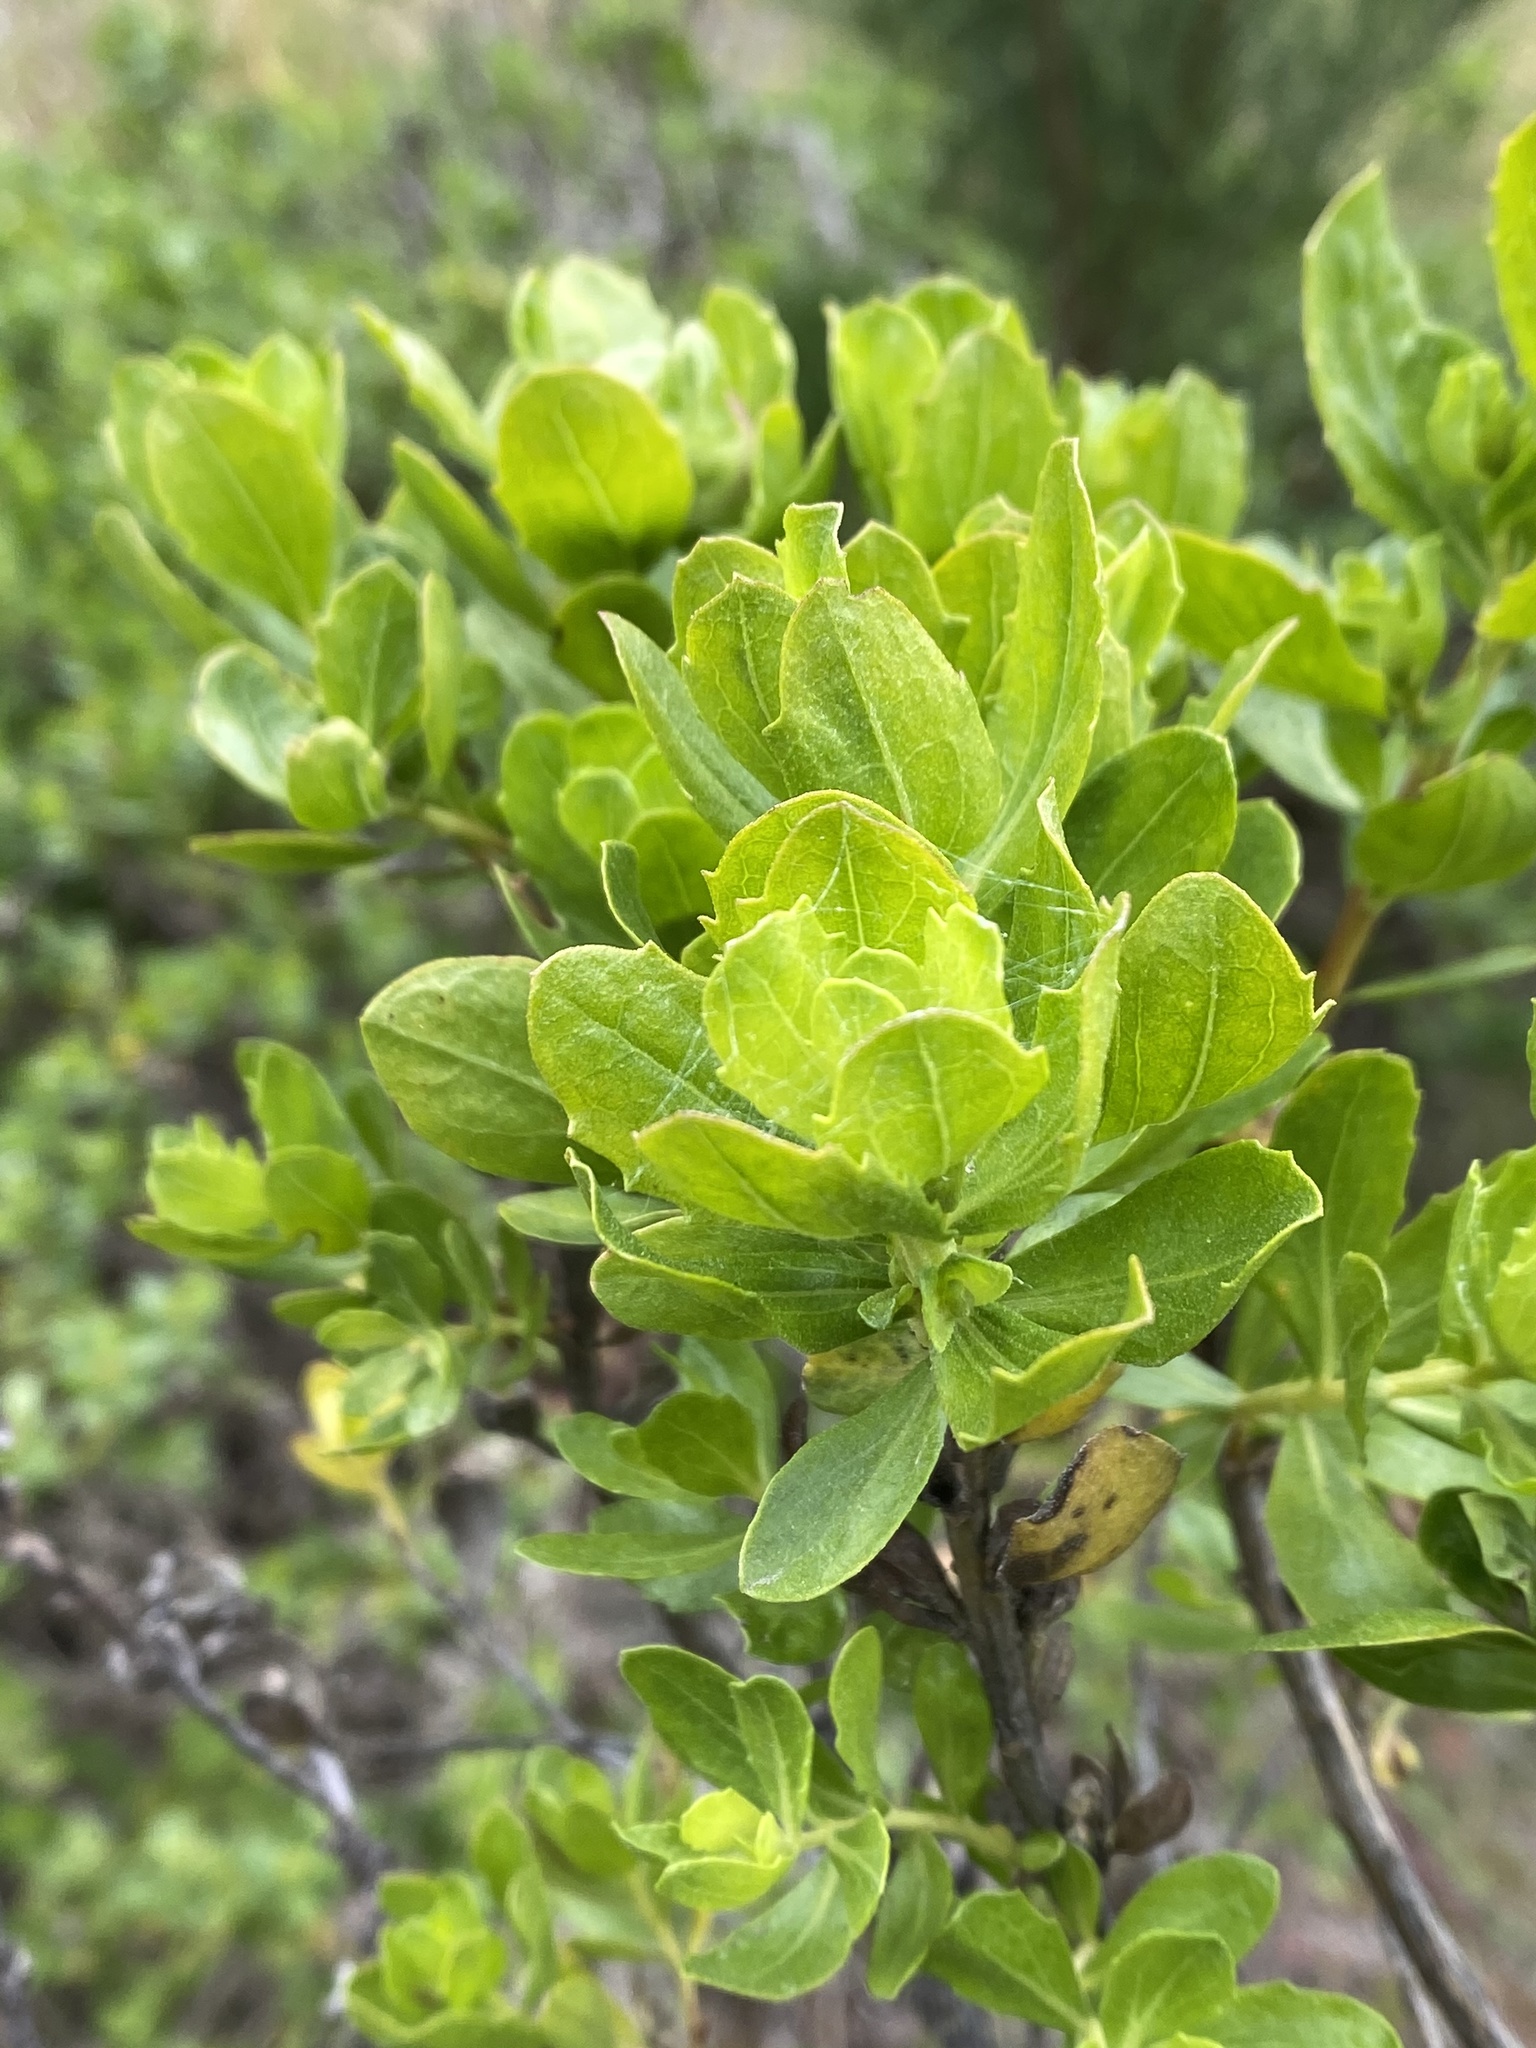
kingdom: Fungi
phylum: Basidiomycota
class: Pucciniomycetes
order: Pucciniales
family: Pucciniaceae
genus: Eriosporangium
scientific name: Eriosporangium evadens
